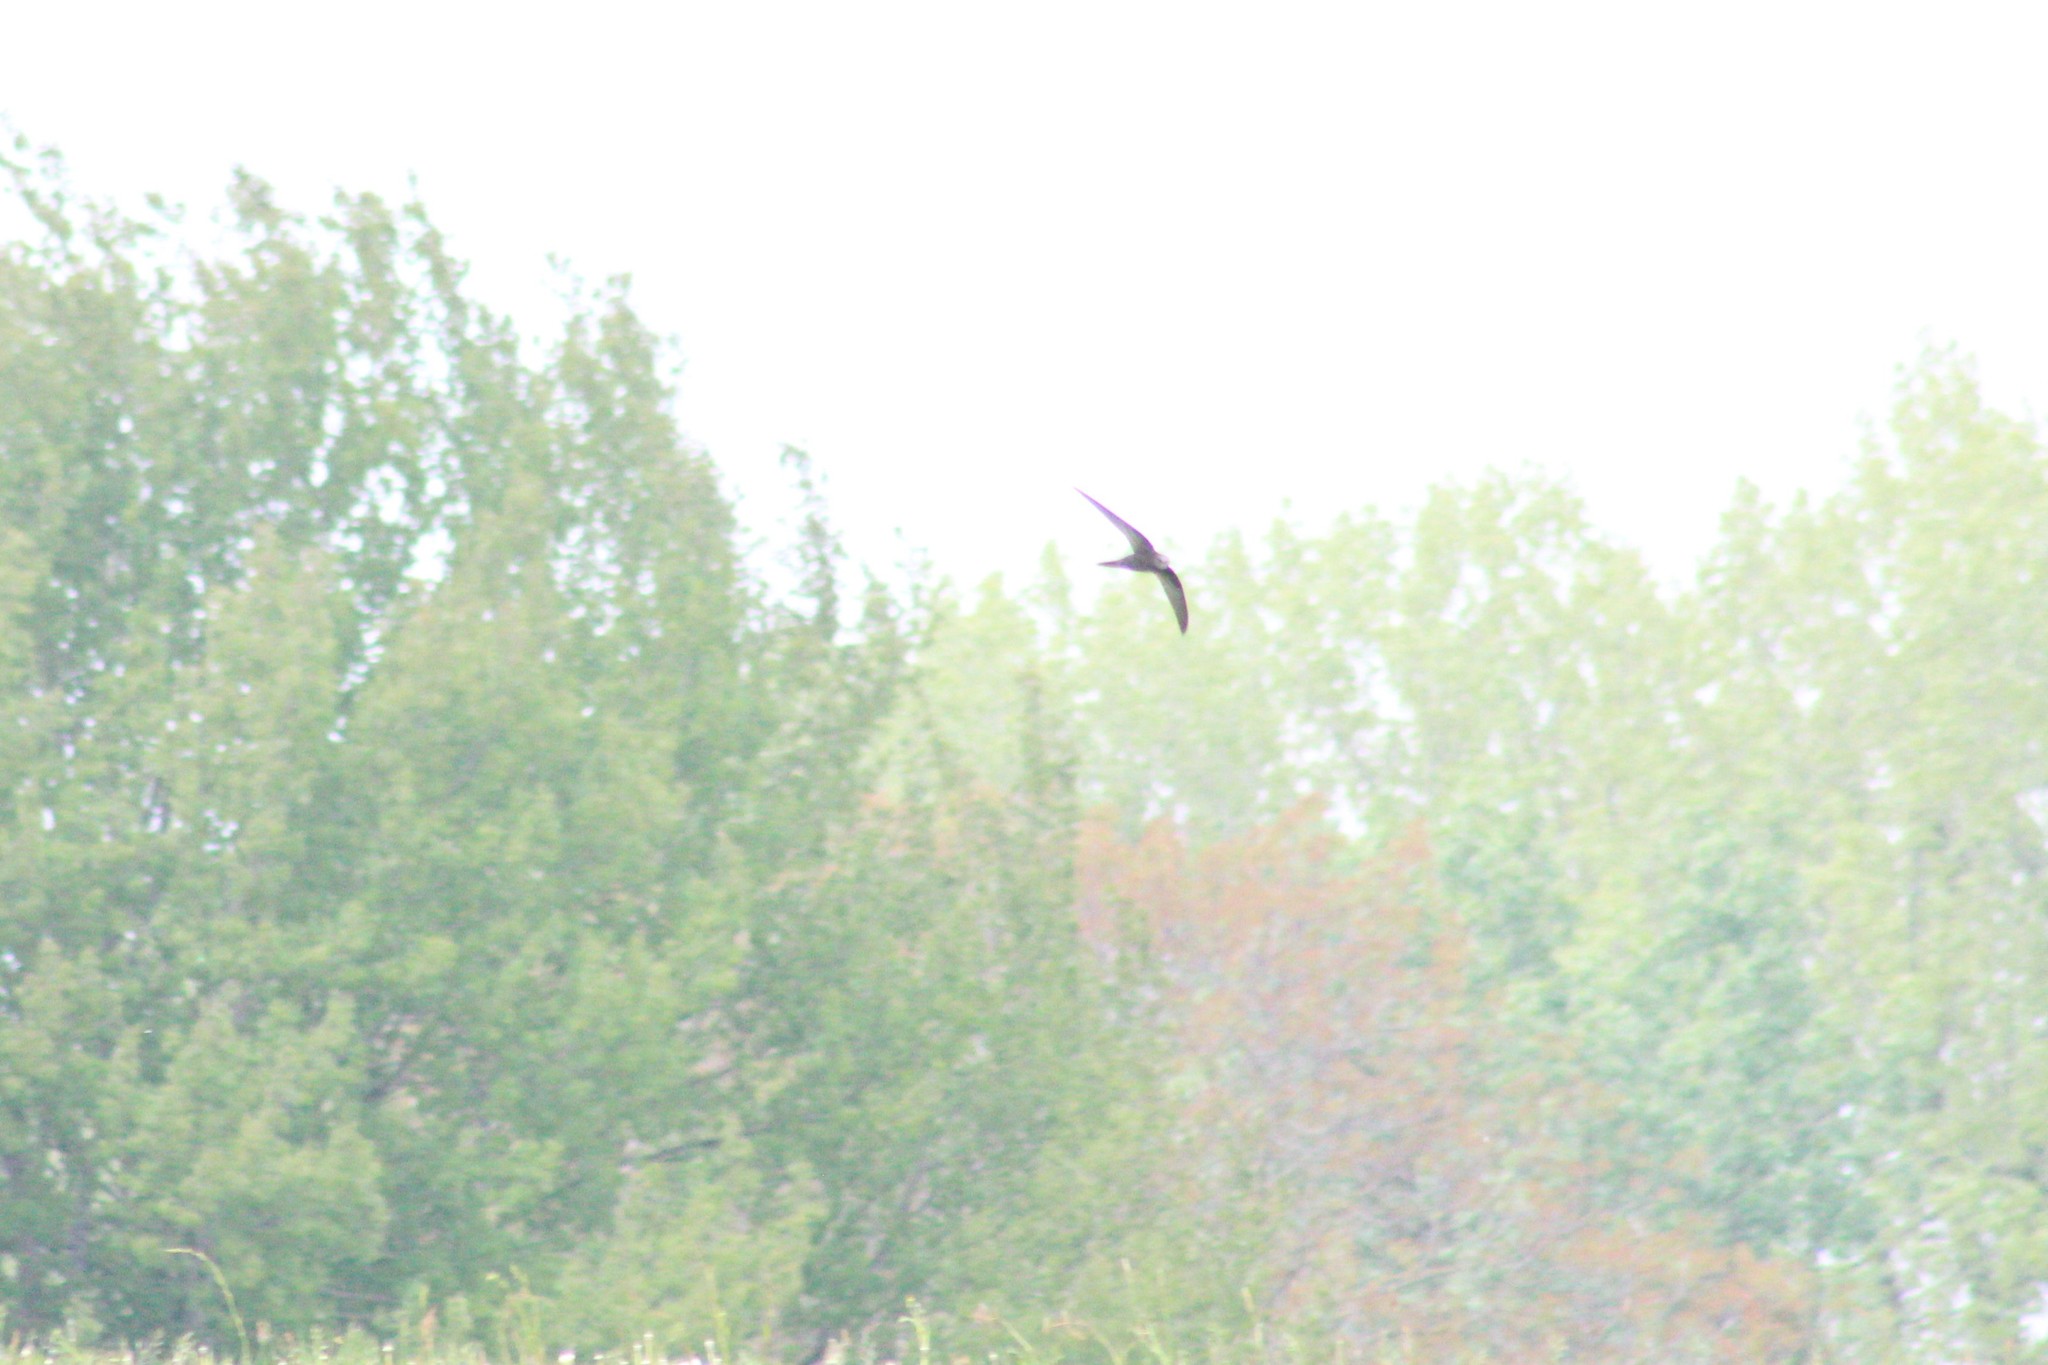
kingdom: Animalia
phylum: Chordata
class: Aves
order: Apodiformes
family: Apodidae
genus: Apus
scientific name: Apus apus
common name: Common swift
